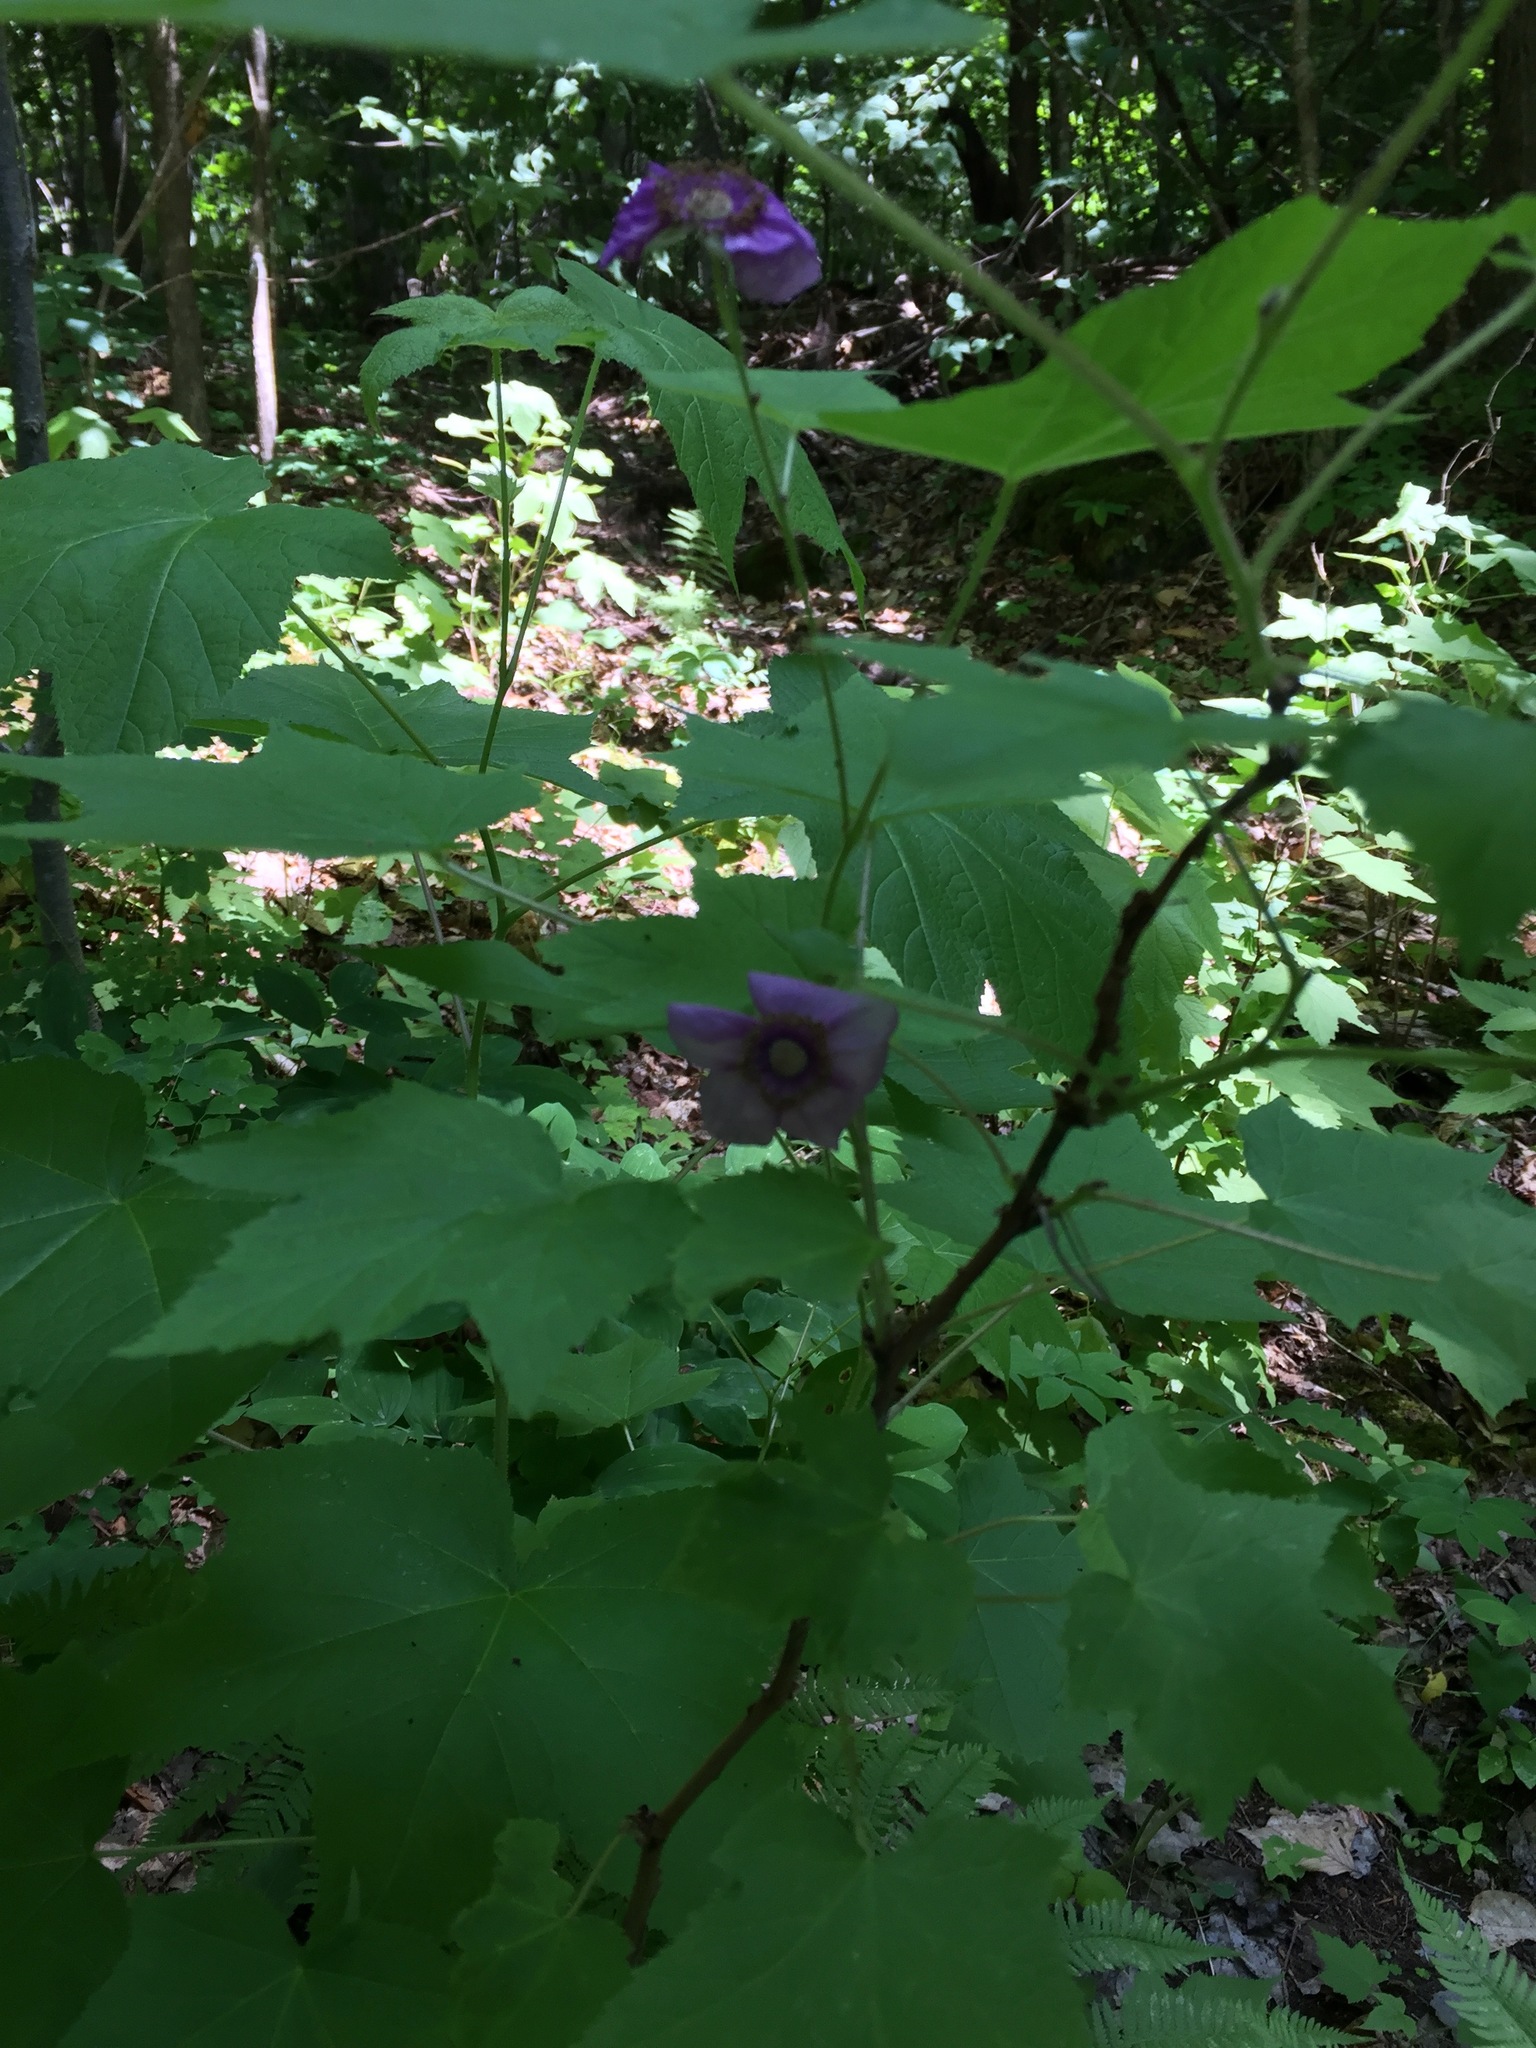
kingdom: Plantae
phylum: Tracheophyta
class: Magnoliopsida
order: Rosales
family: Rosaceae
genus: Rubus
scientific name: Rubus odoratus
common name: Purple-flowered raspberry
